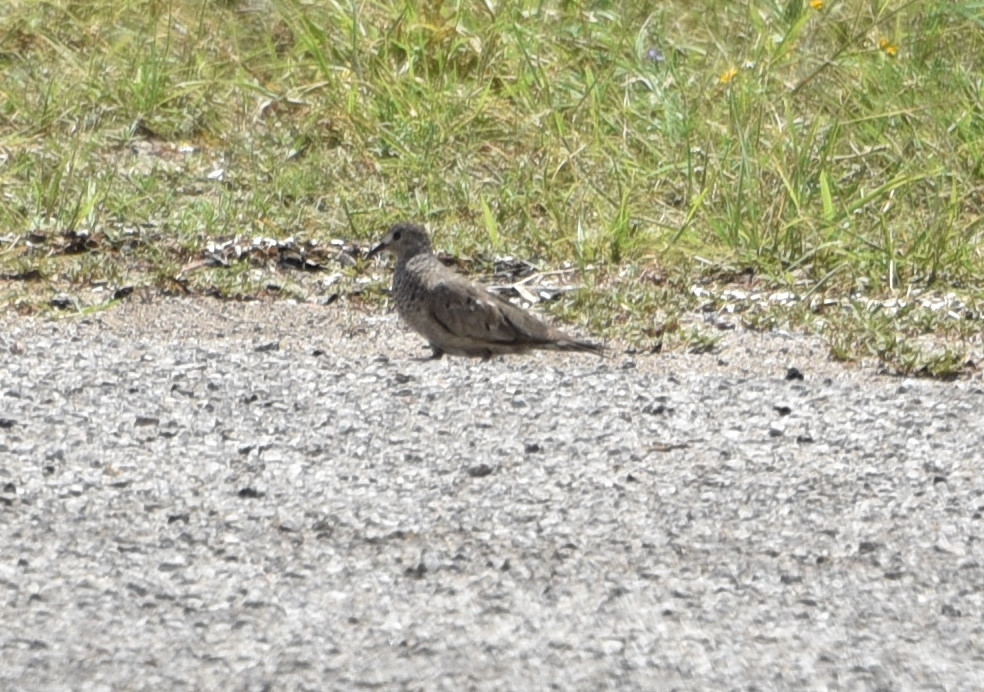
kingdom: Animalia
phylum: Chordata
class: Aves
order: Columbiformes
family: Columbidae
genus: Columbina
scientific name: Columbina passerina
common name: Common ground-dove
